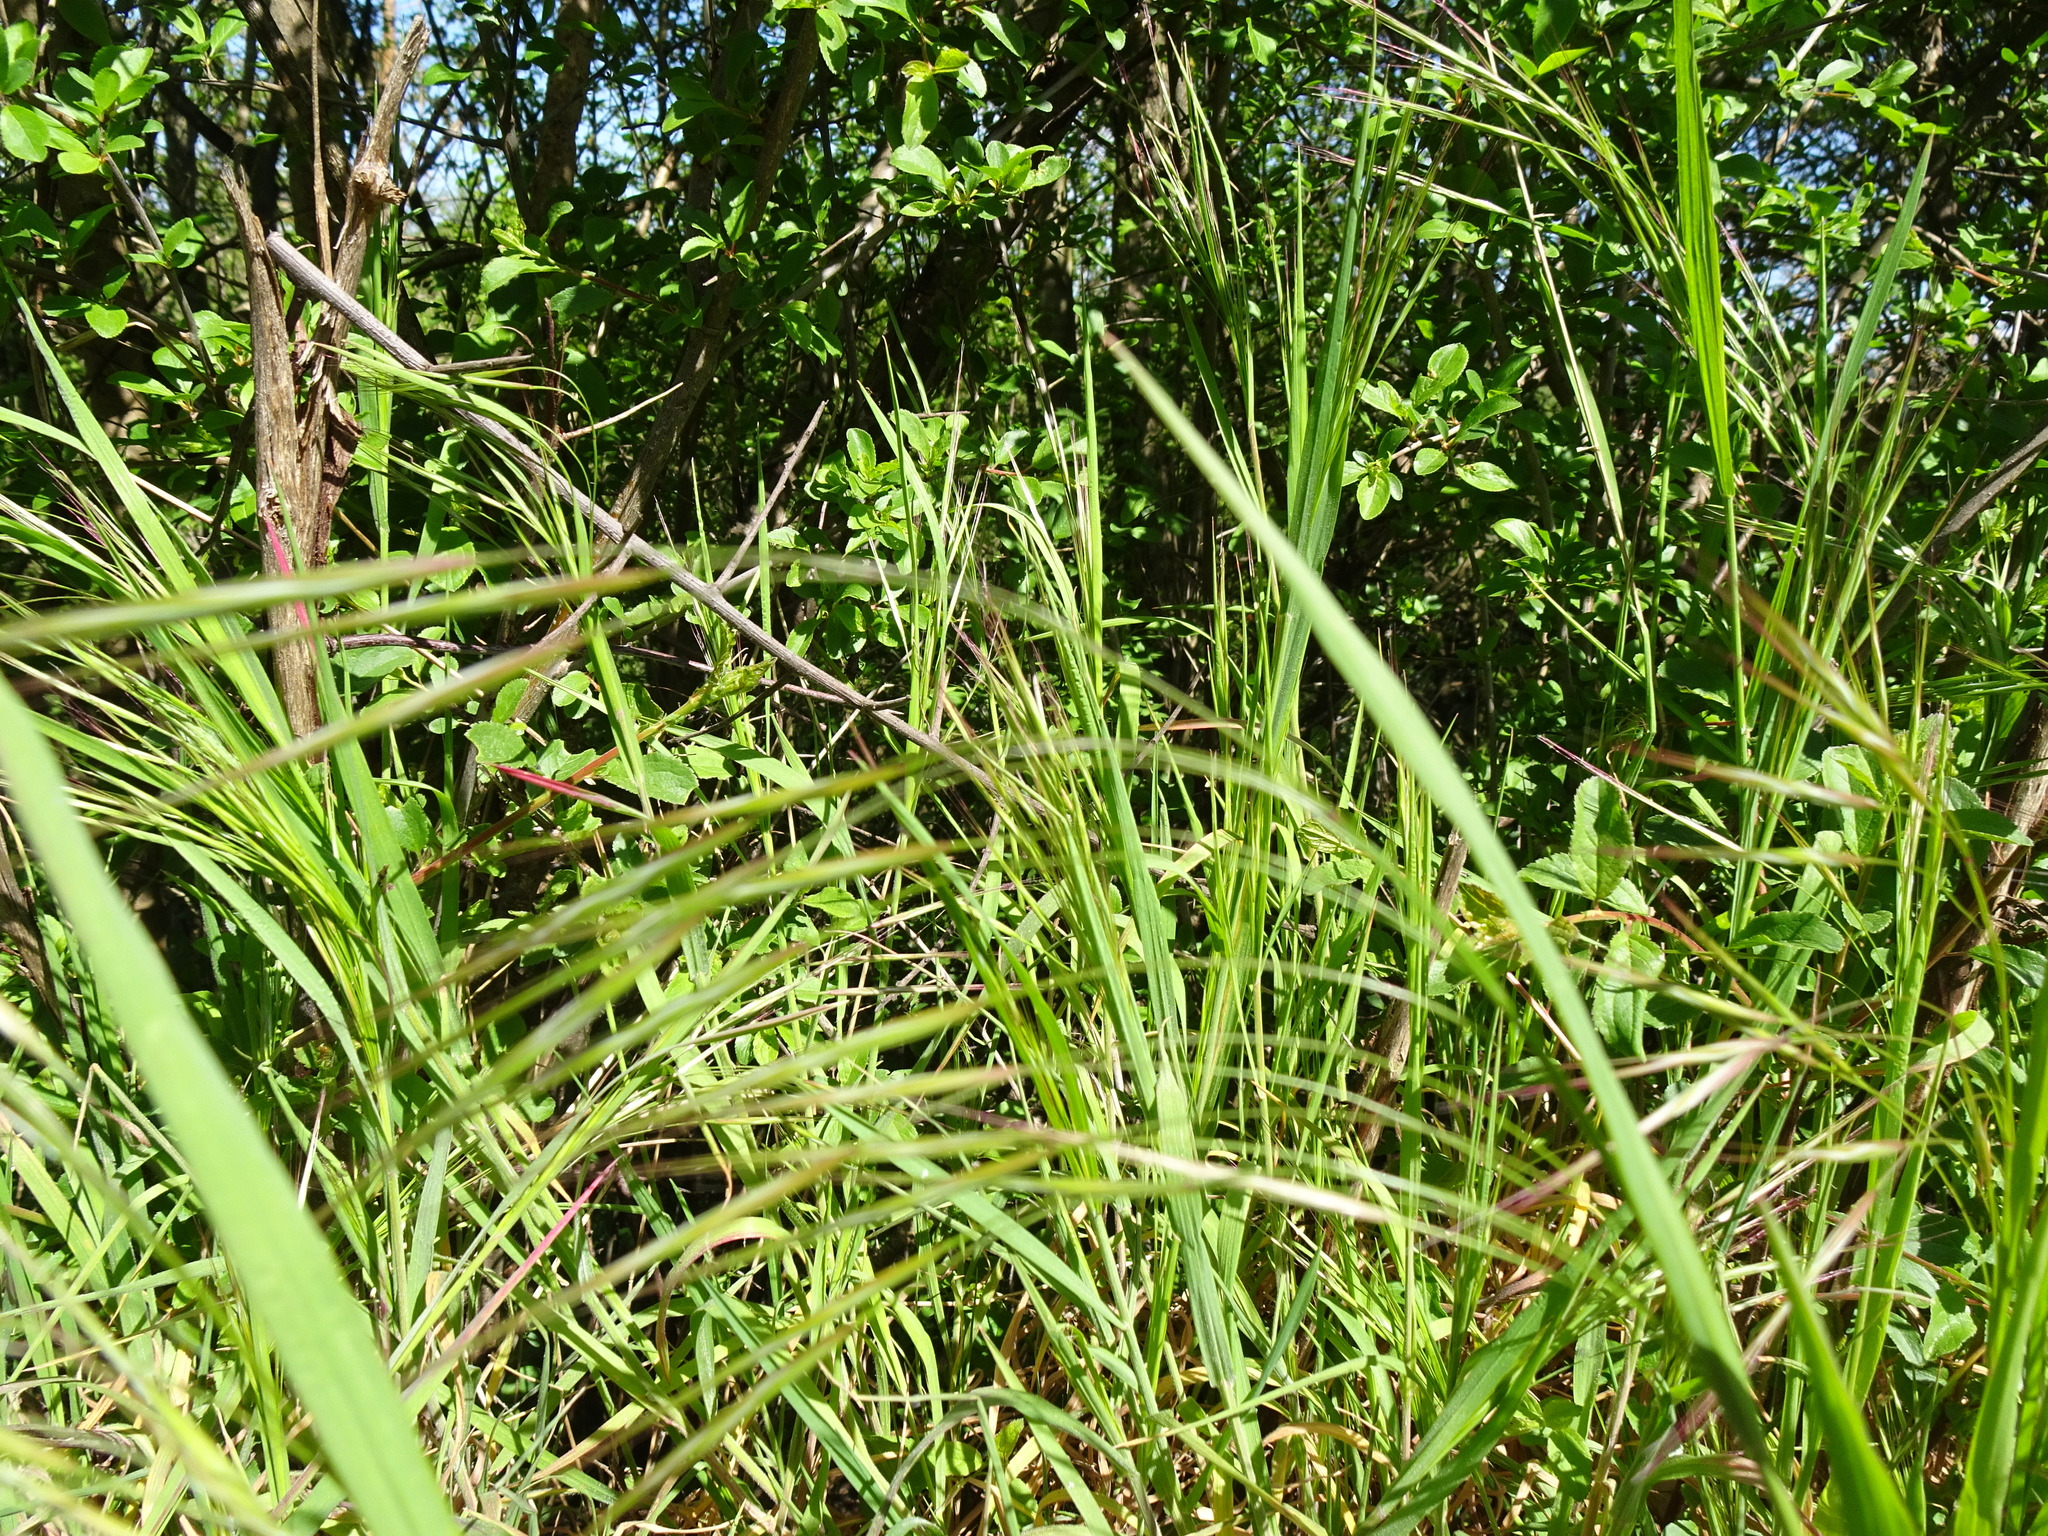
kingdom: Plantae
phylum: Tracheophyta
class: Liliopsida
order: Poales
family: Poaceae
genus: Bromus
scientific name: Bromus sterilis
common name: Poverty brome
